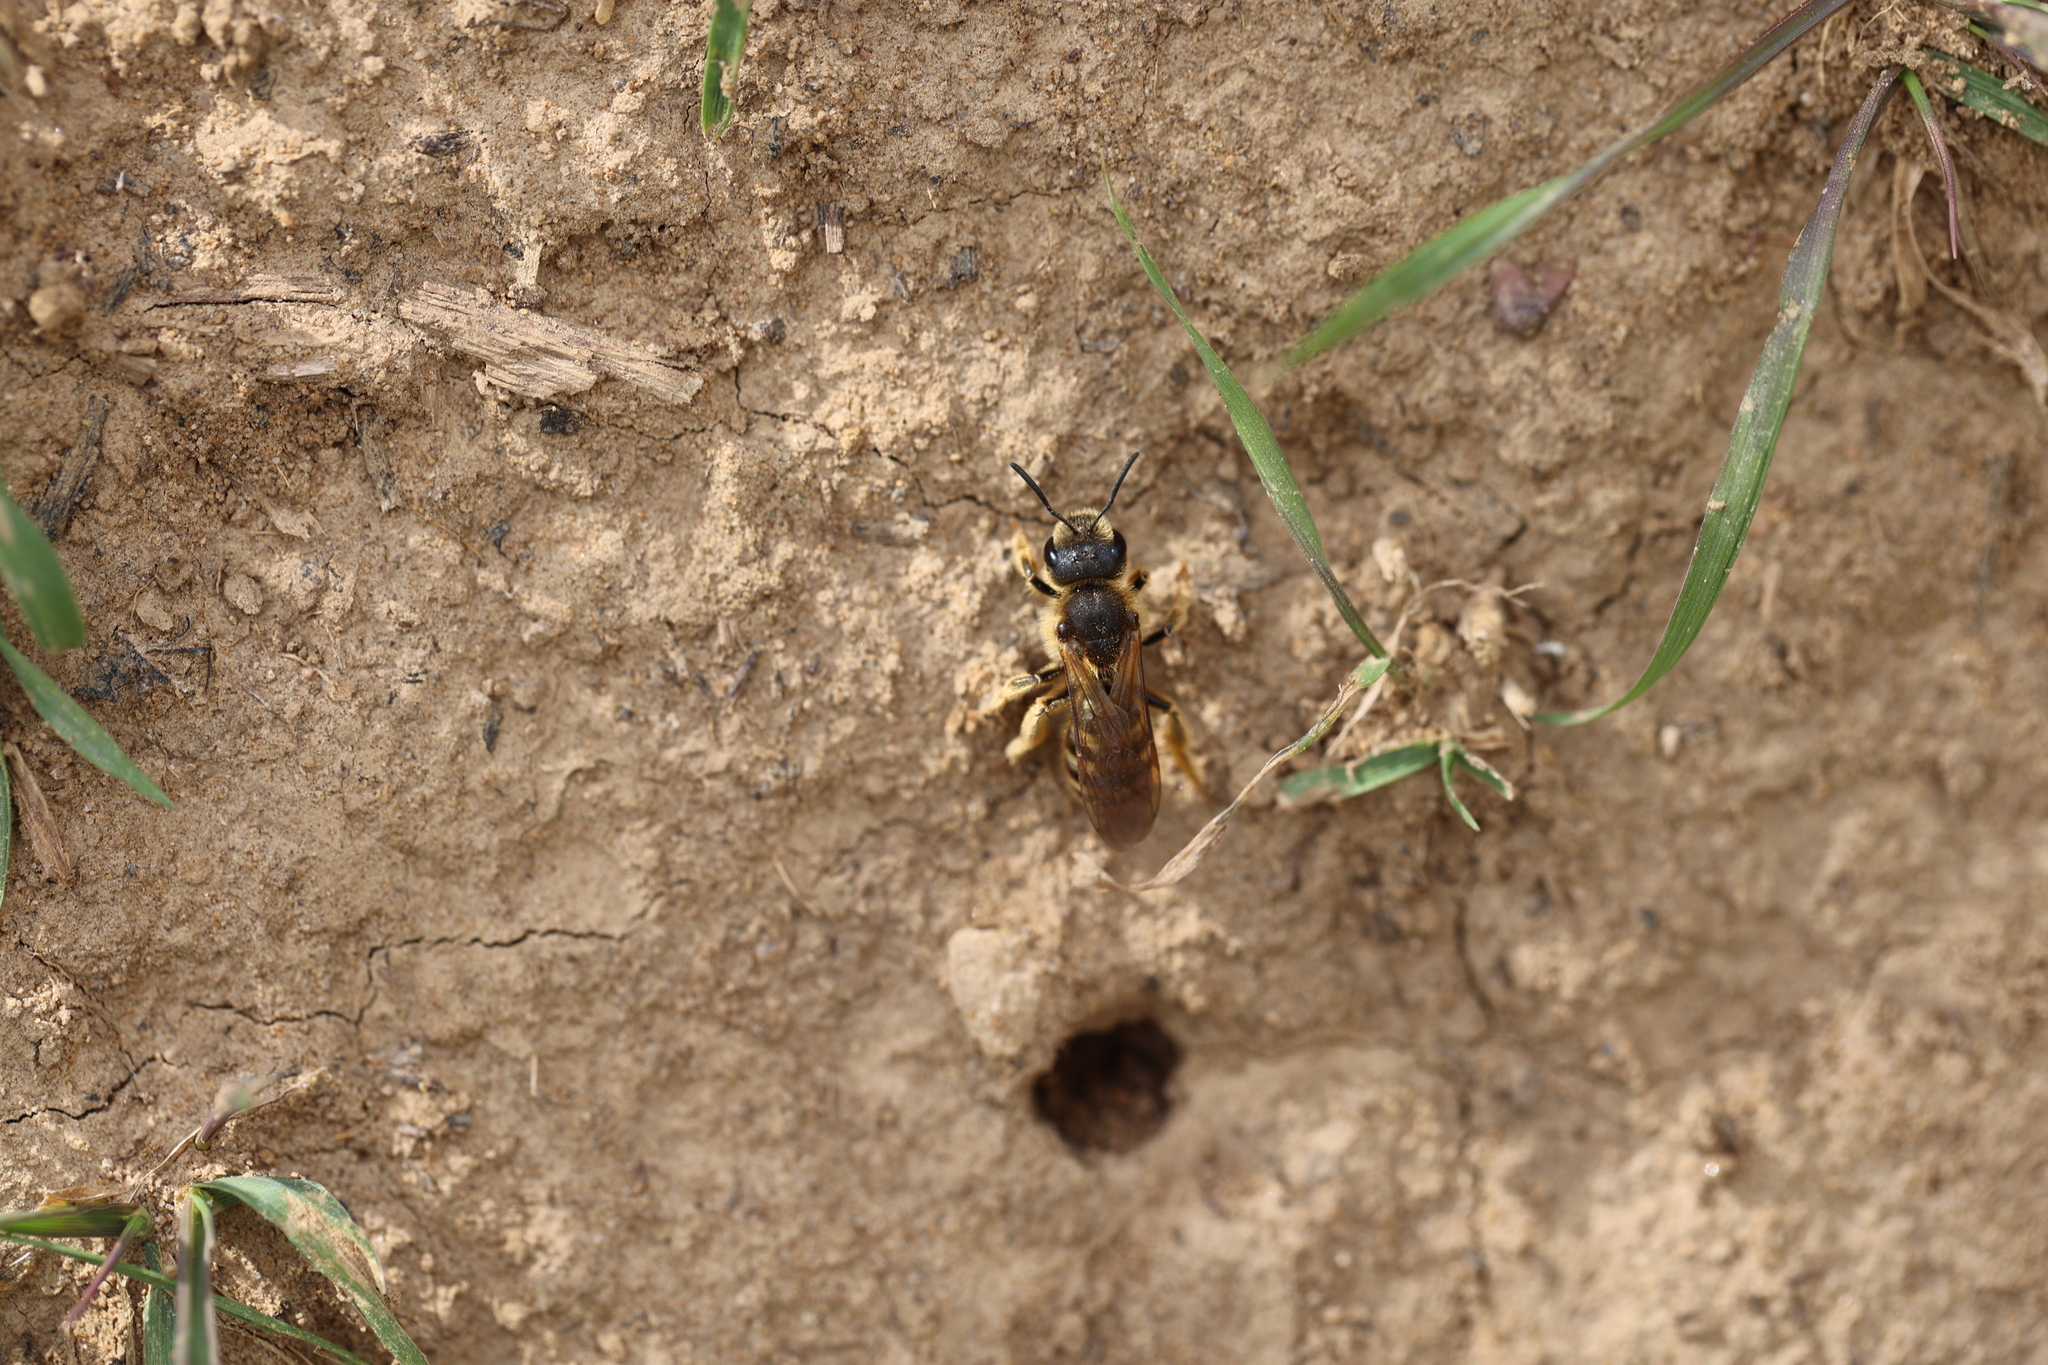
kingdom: Animalia
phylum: Arthropoda
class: Insecta
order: Hymenoptera
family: Halictidae
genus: Halictus
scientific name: Halictus scabiosae
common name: Great banded furrow bee
